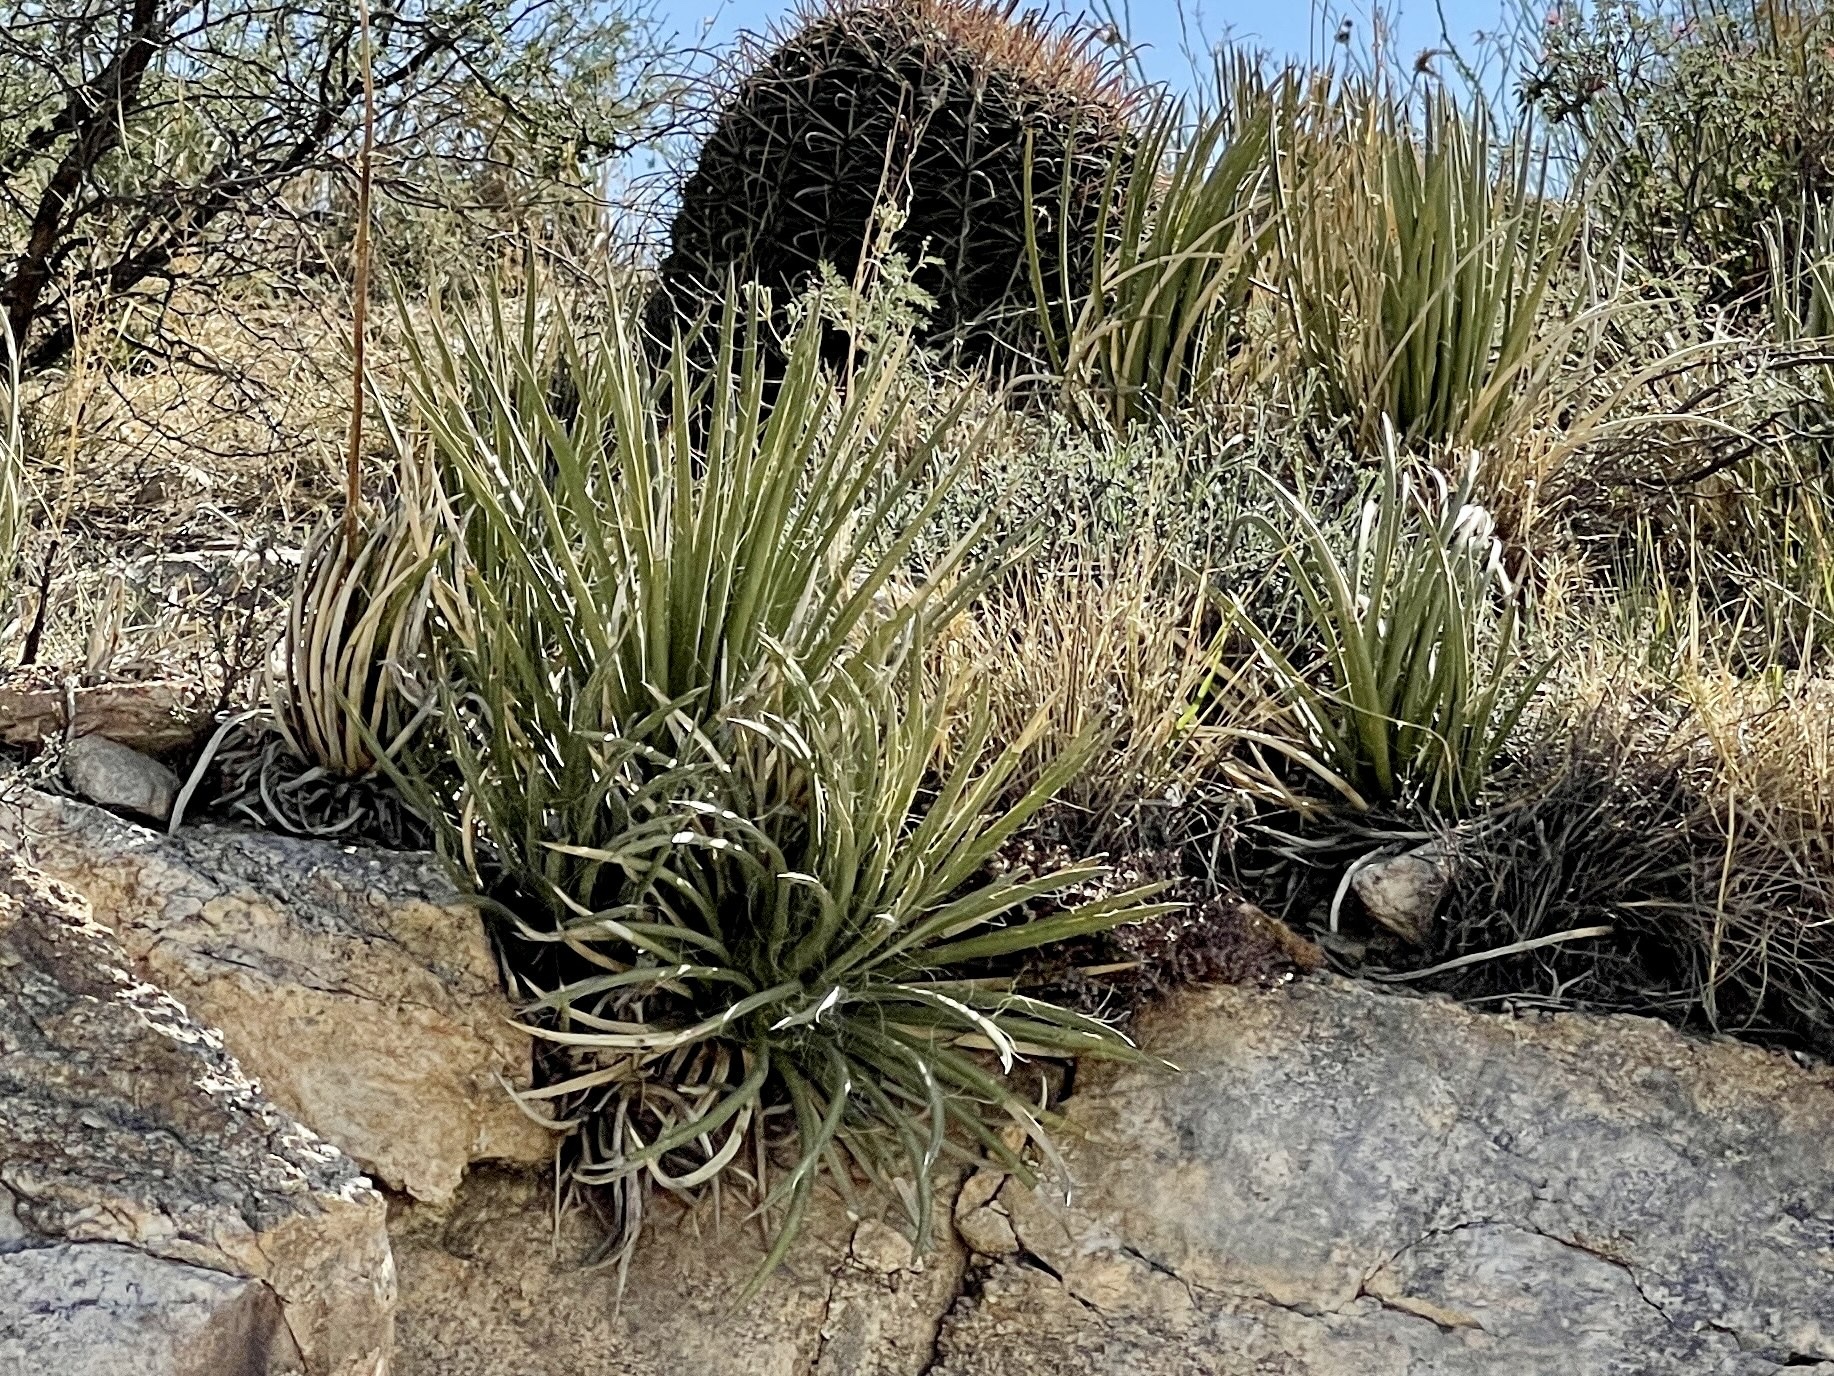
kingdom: Plantae
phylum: Tracheophyta
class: Liliopsida
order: Asparagales
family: Asparagaceae
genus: Agave
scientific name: Agave schottii
